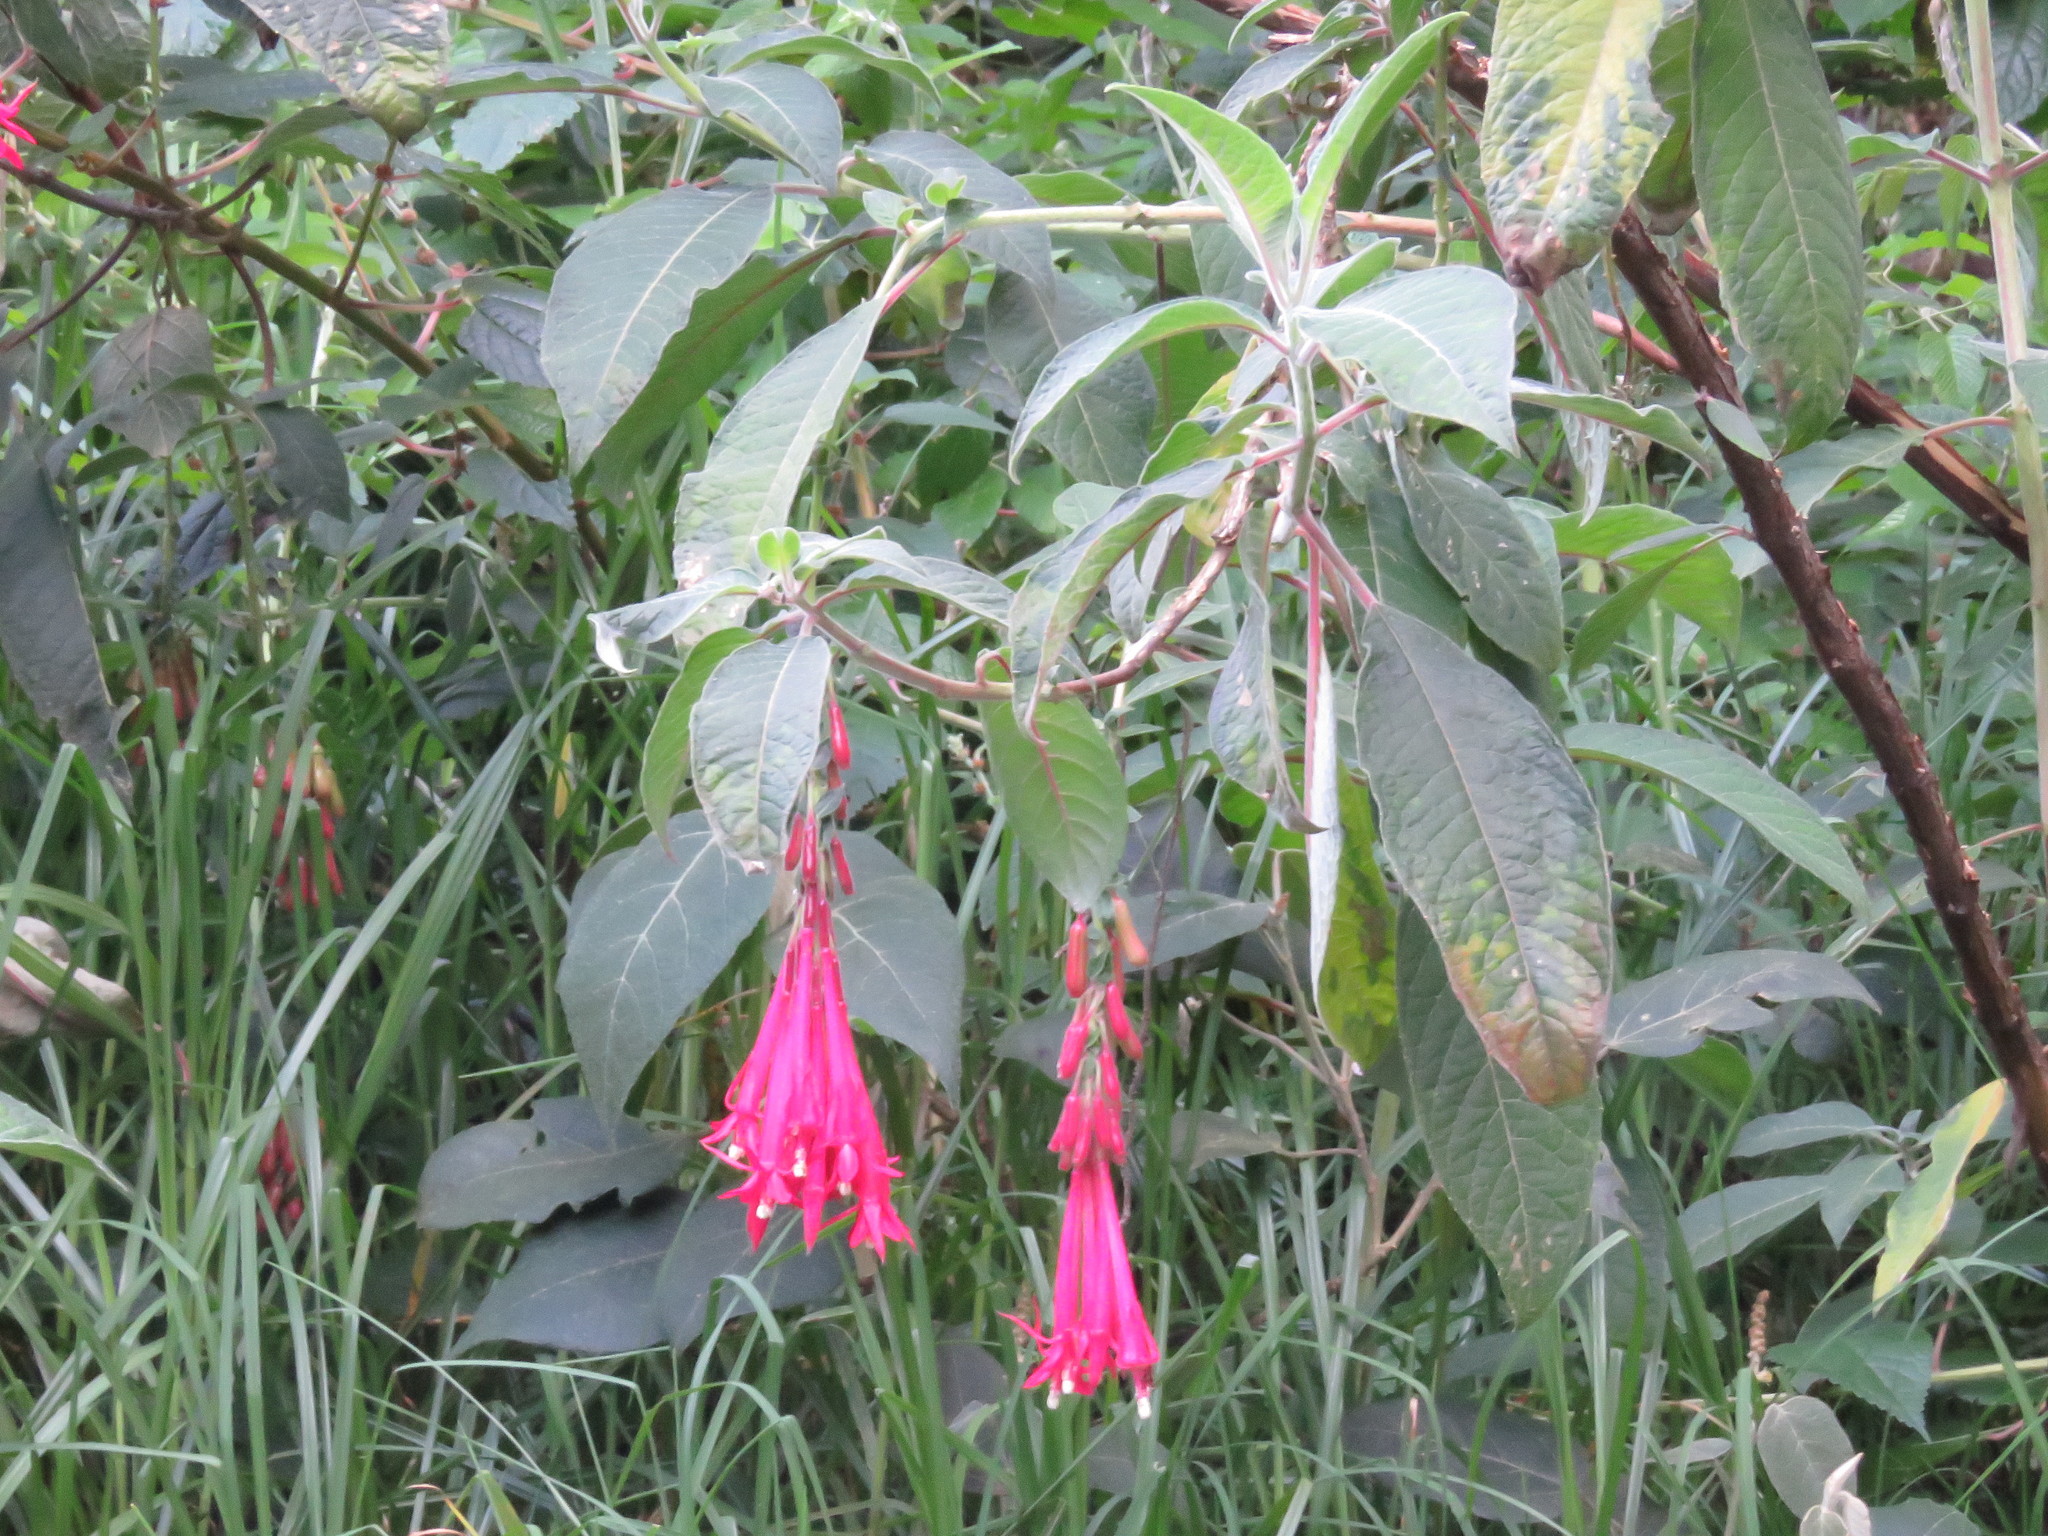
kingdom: Plantae
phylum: Tracheophyta
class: Magnoliopsida
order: Myrtales
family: Onagraceae
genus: Fuchsia
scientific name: Fuchsia boliviana
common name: Bolivian fuchsia
